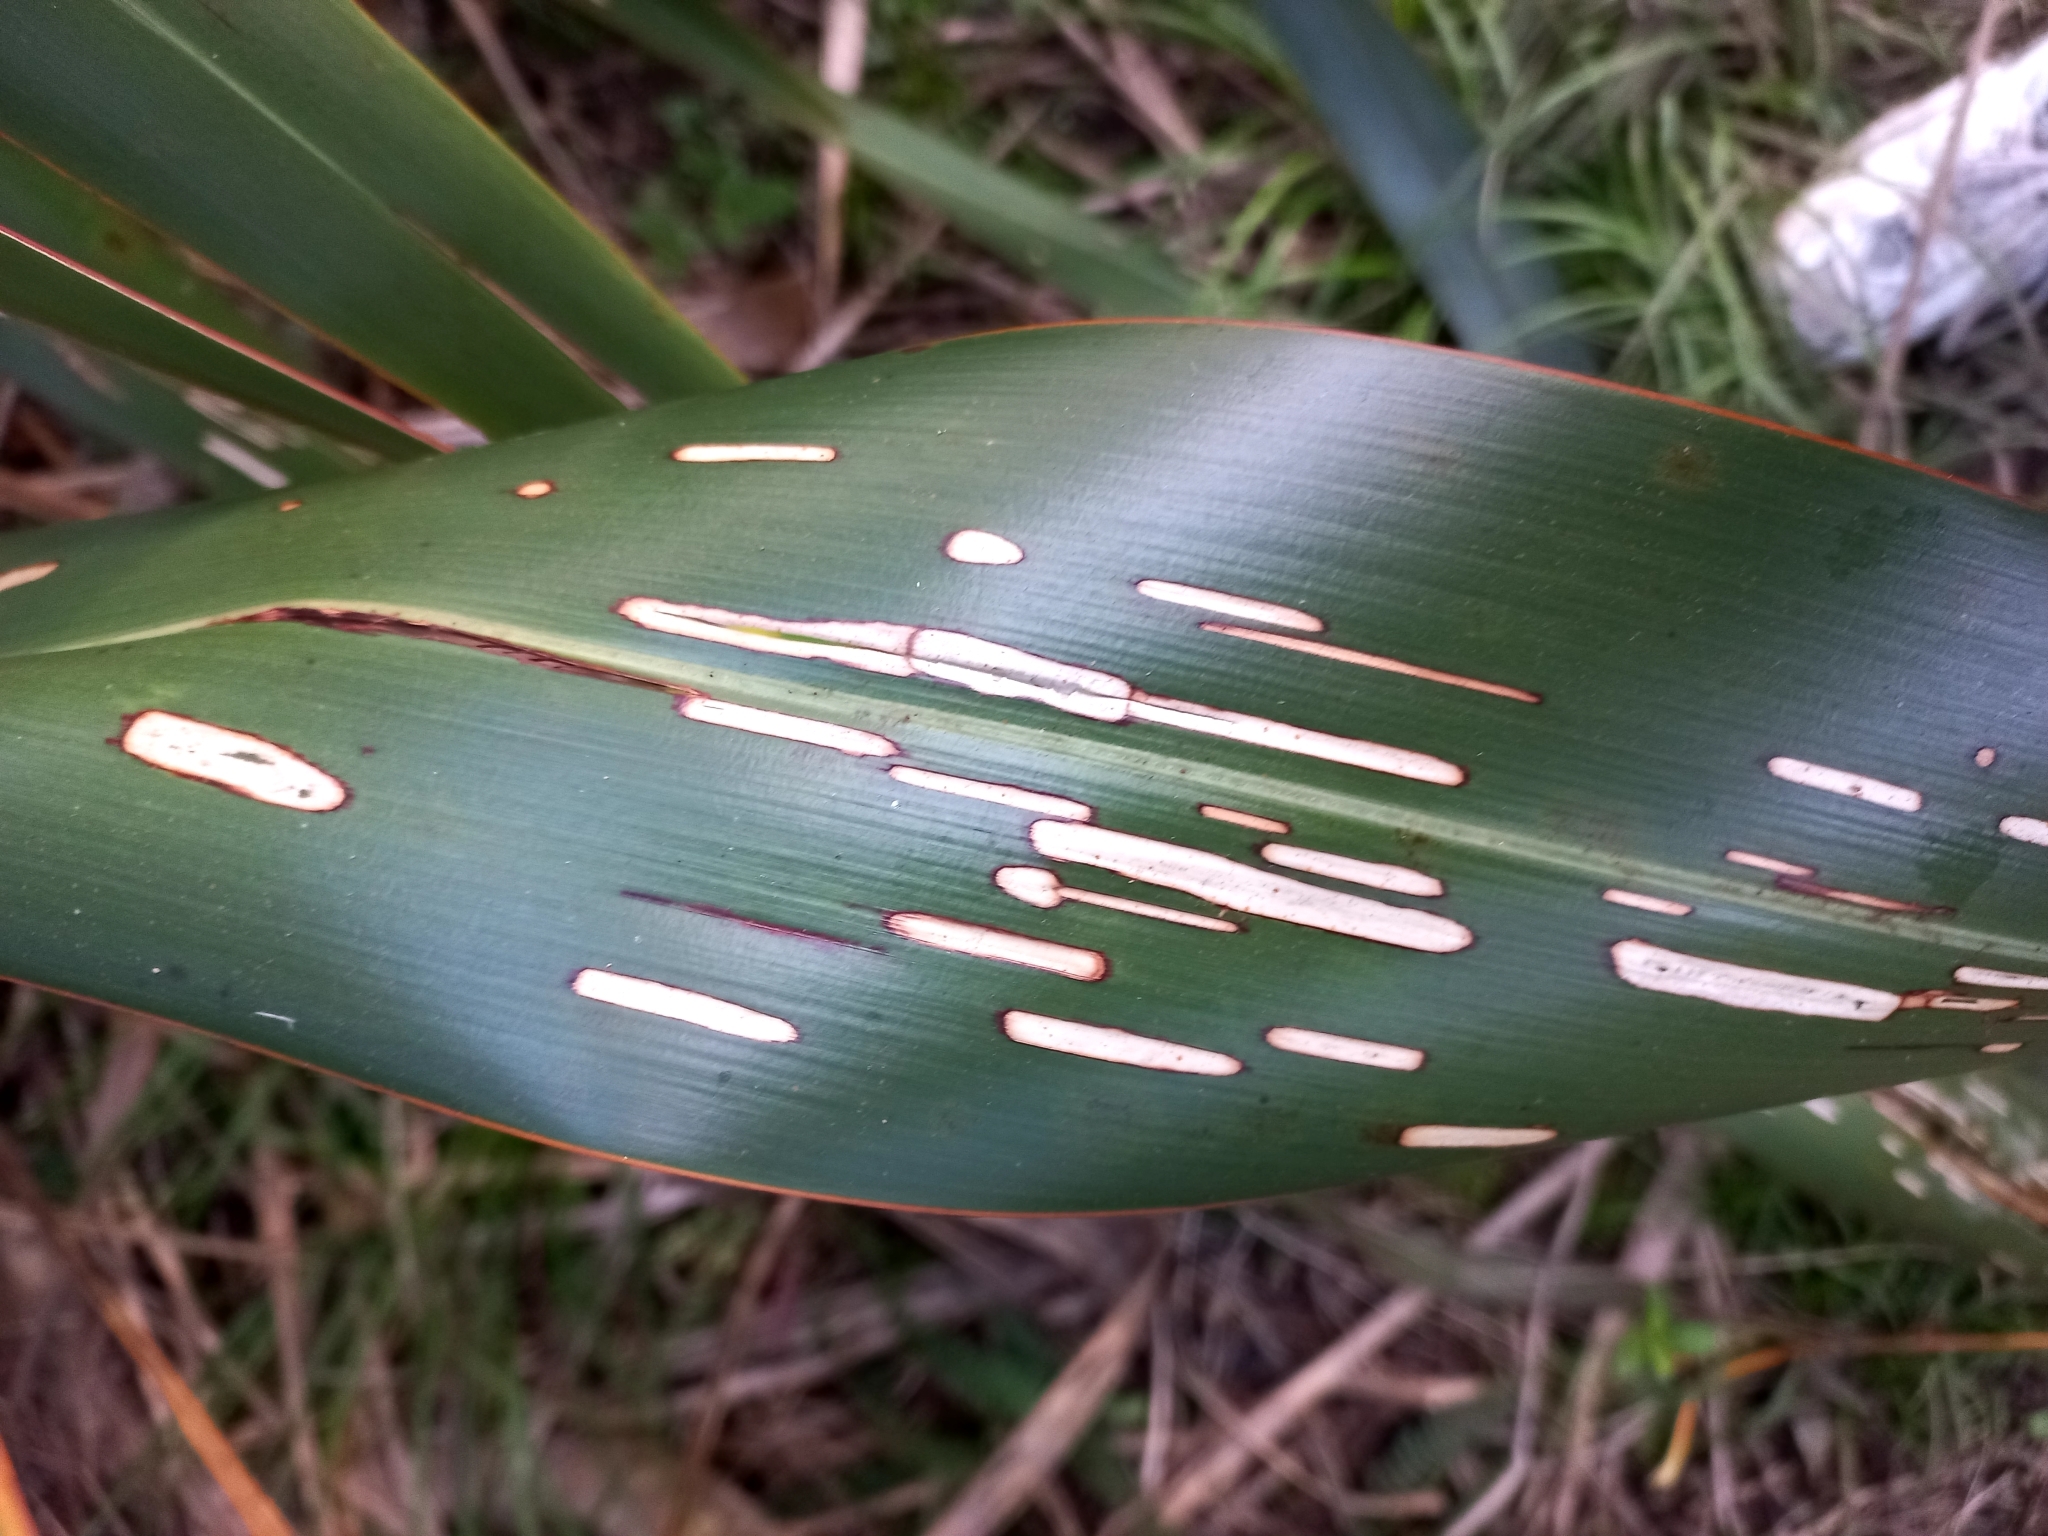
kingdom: Animalia
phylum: Arthropoda
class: Insecta
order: Lepidoptera
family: Geometridae
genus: Orthoclydon
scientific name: Orthoclydon praefectata
